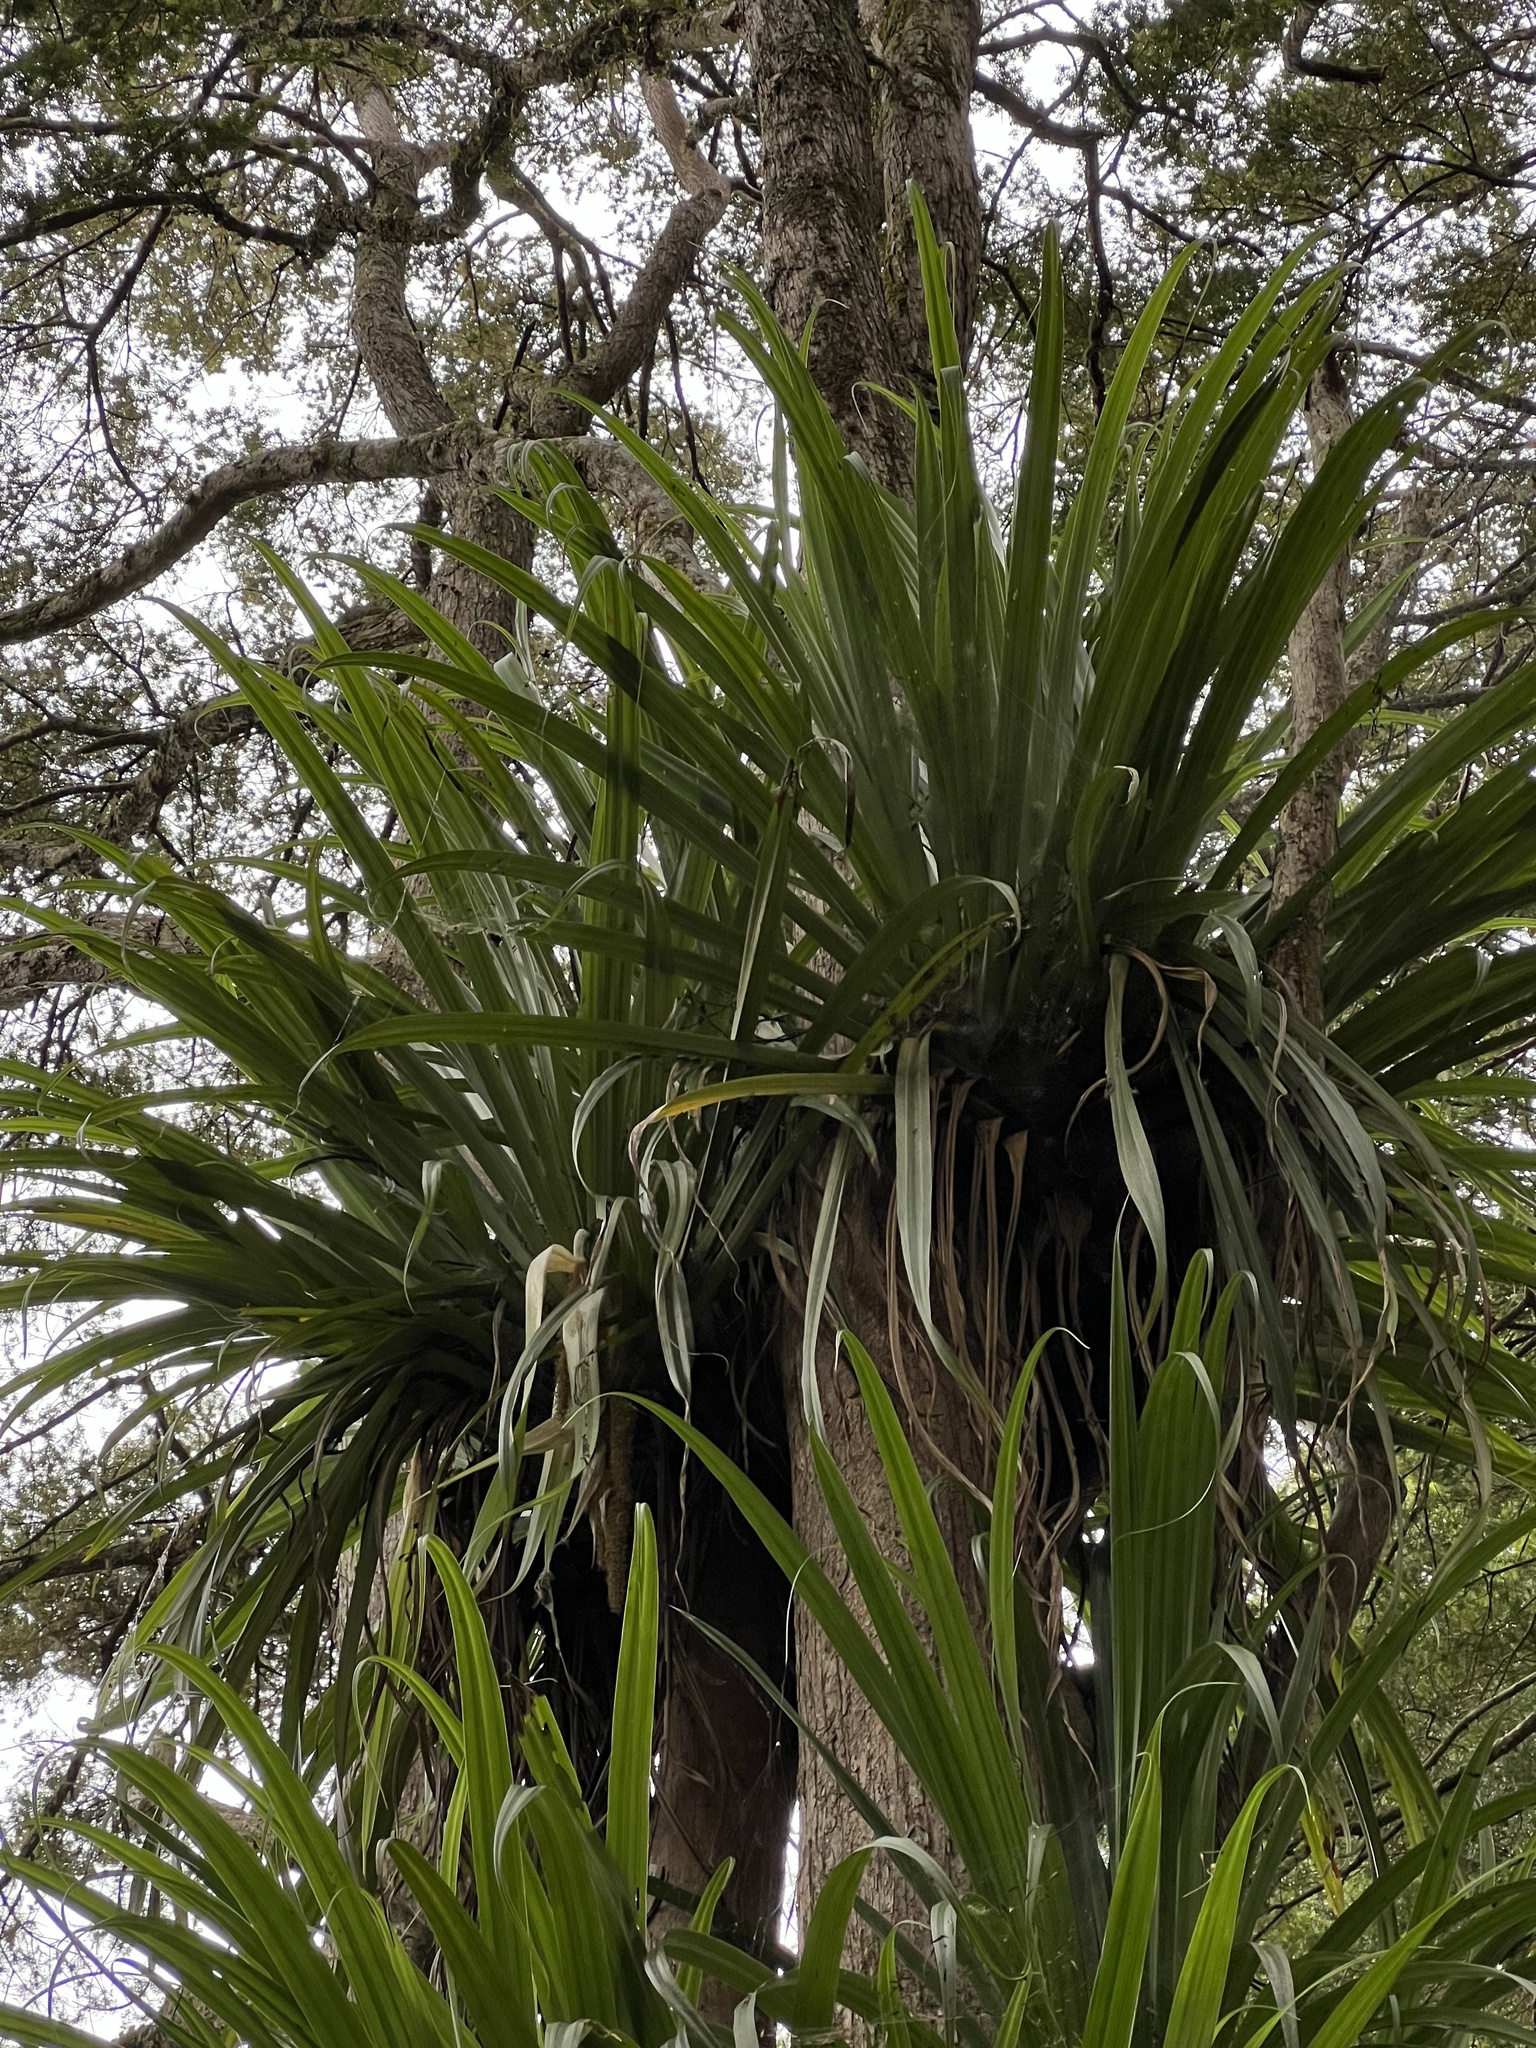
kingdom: Plantae
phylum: Tracheophyta
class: Liliopsida
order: Asparagales
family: Asteliaceae
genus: Astelia
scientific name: Astelia hastata
